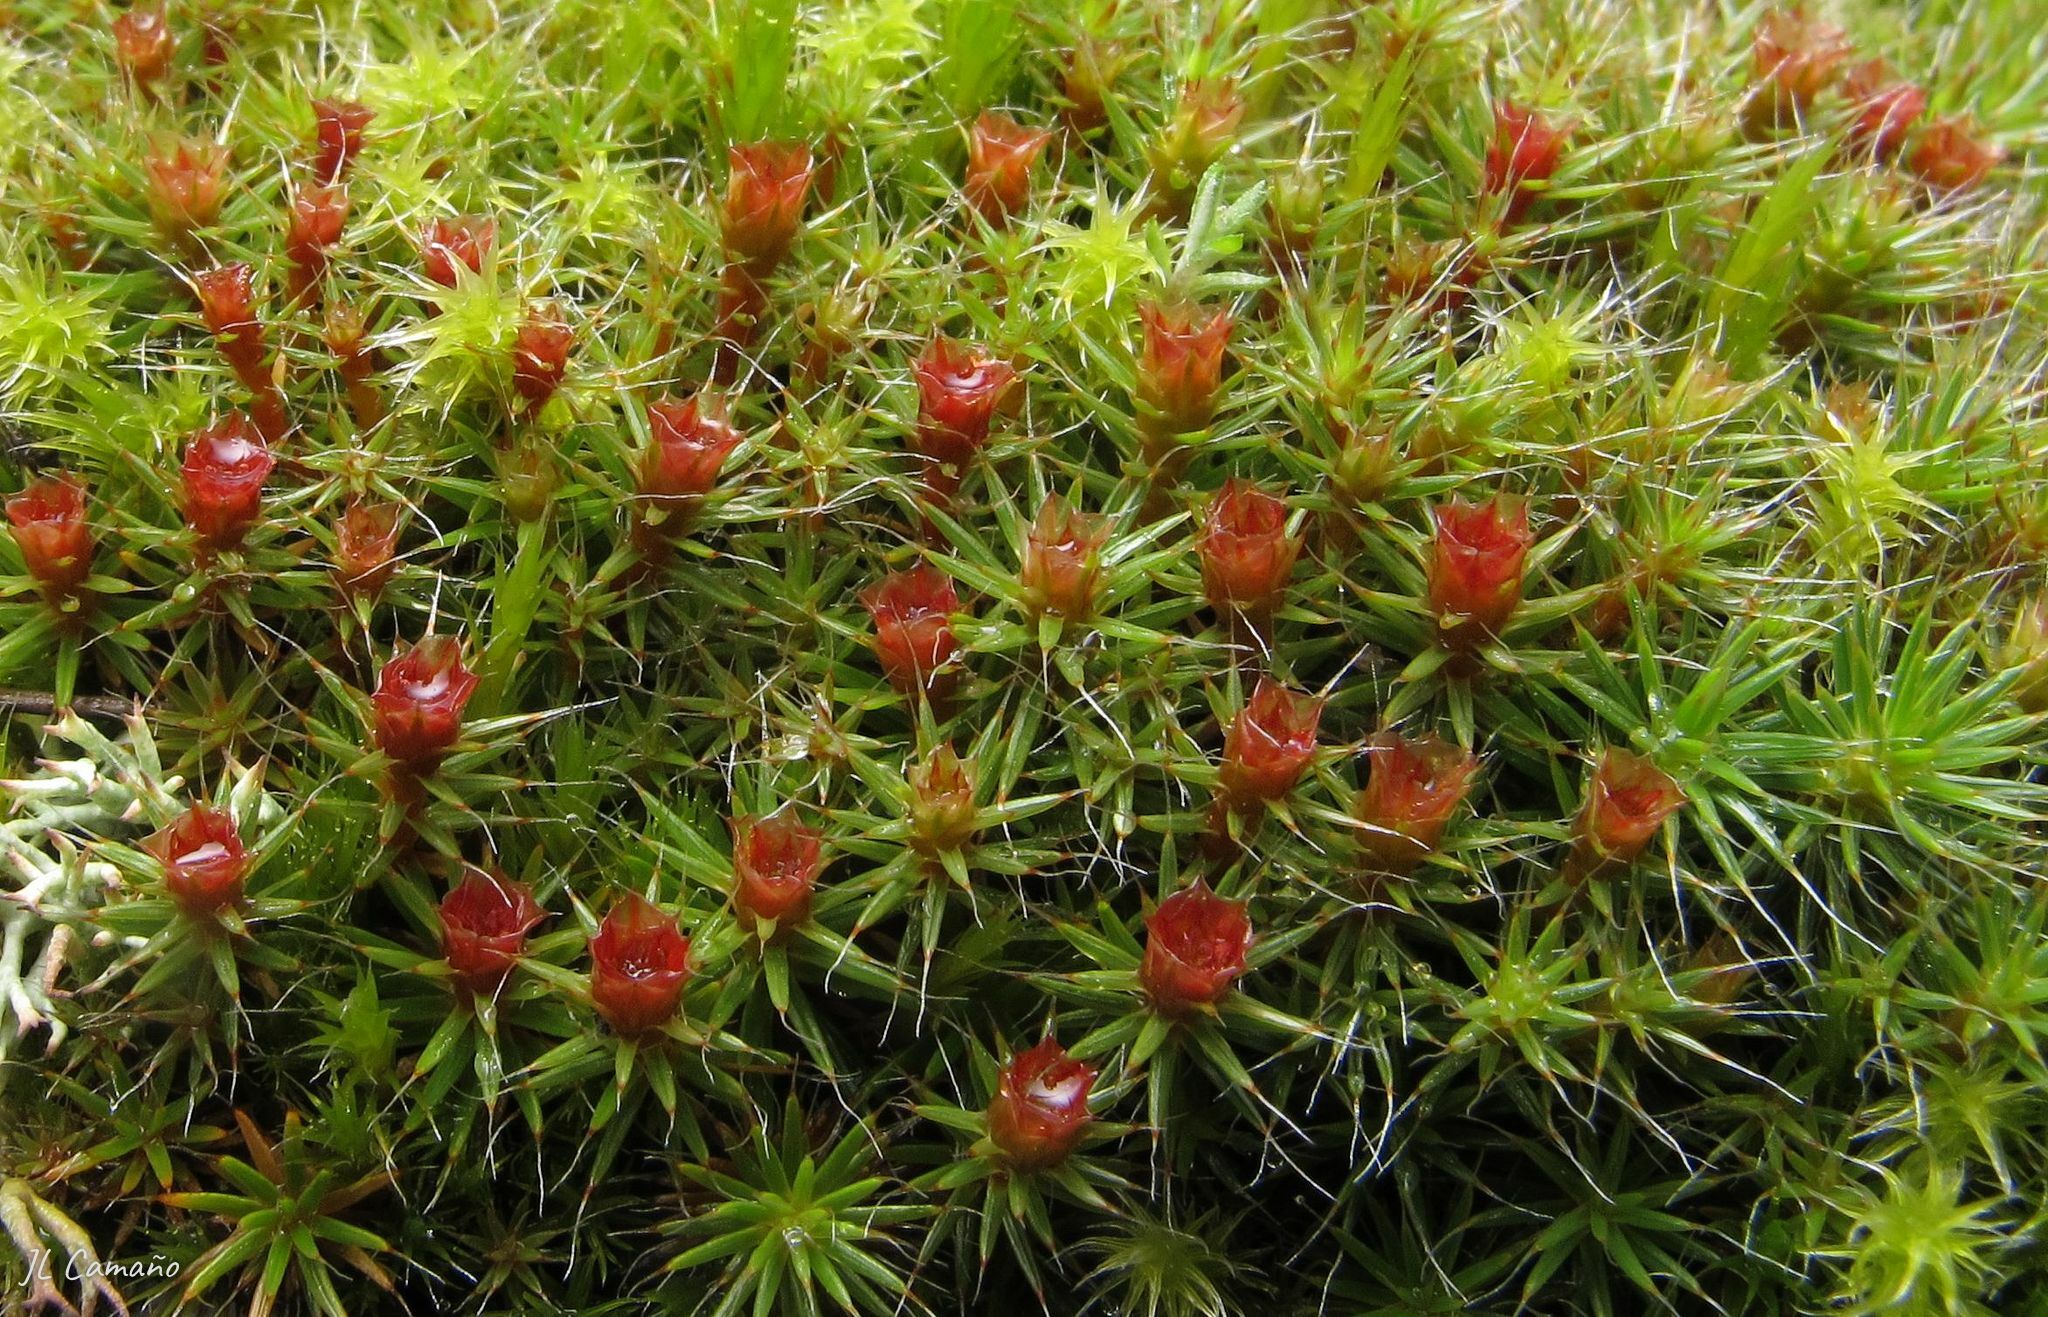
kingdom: Plantae
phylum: Bryophyta
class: Polytrichopsida
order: Polytrichales
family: Polytrichaceae
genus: Polytrichum
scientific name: Polytrichum piliferum
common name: Bristly haircap
